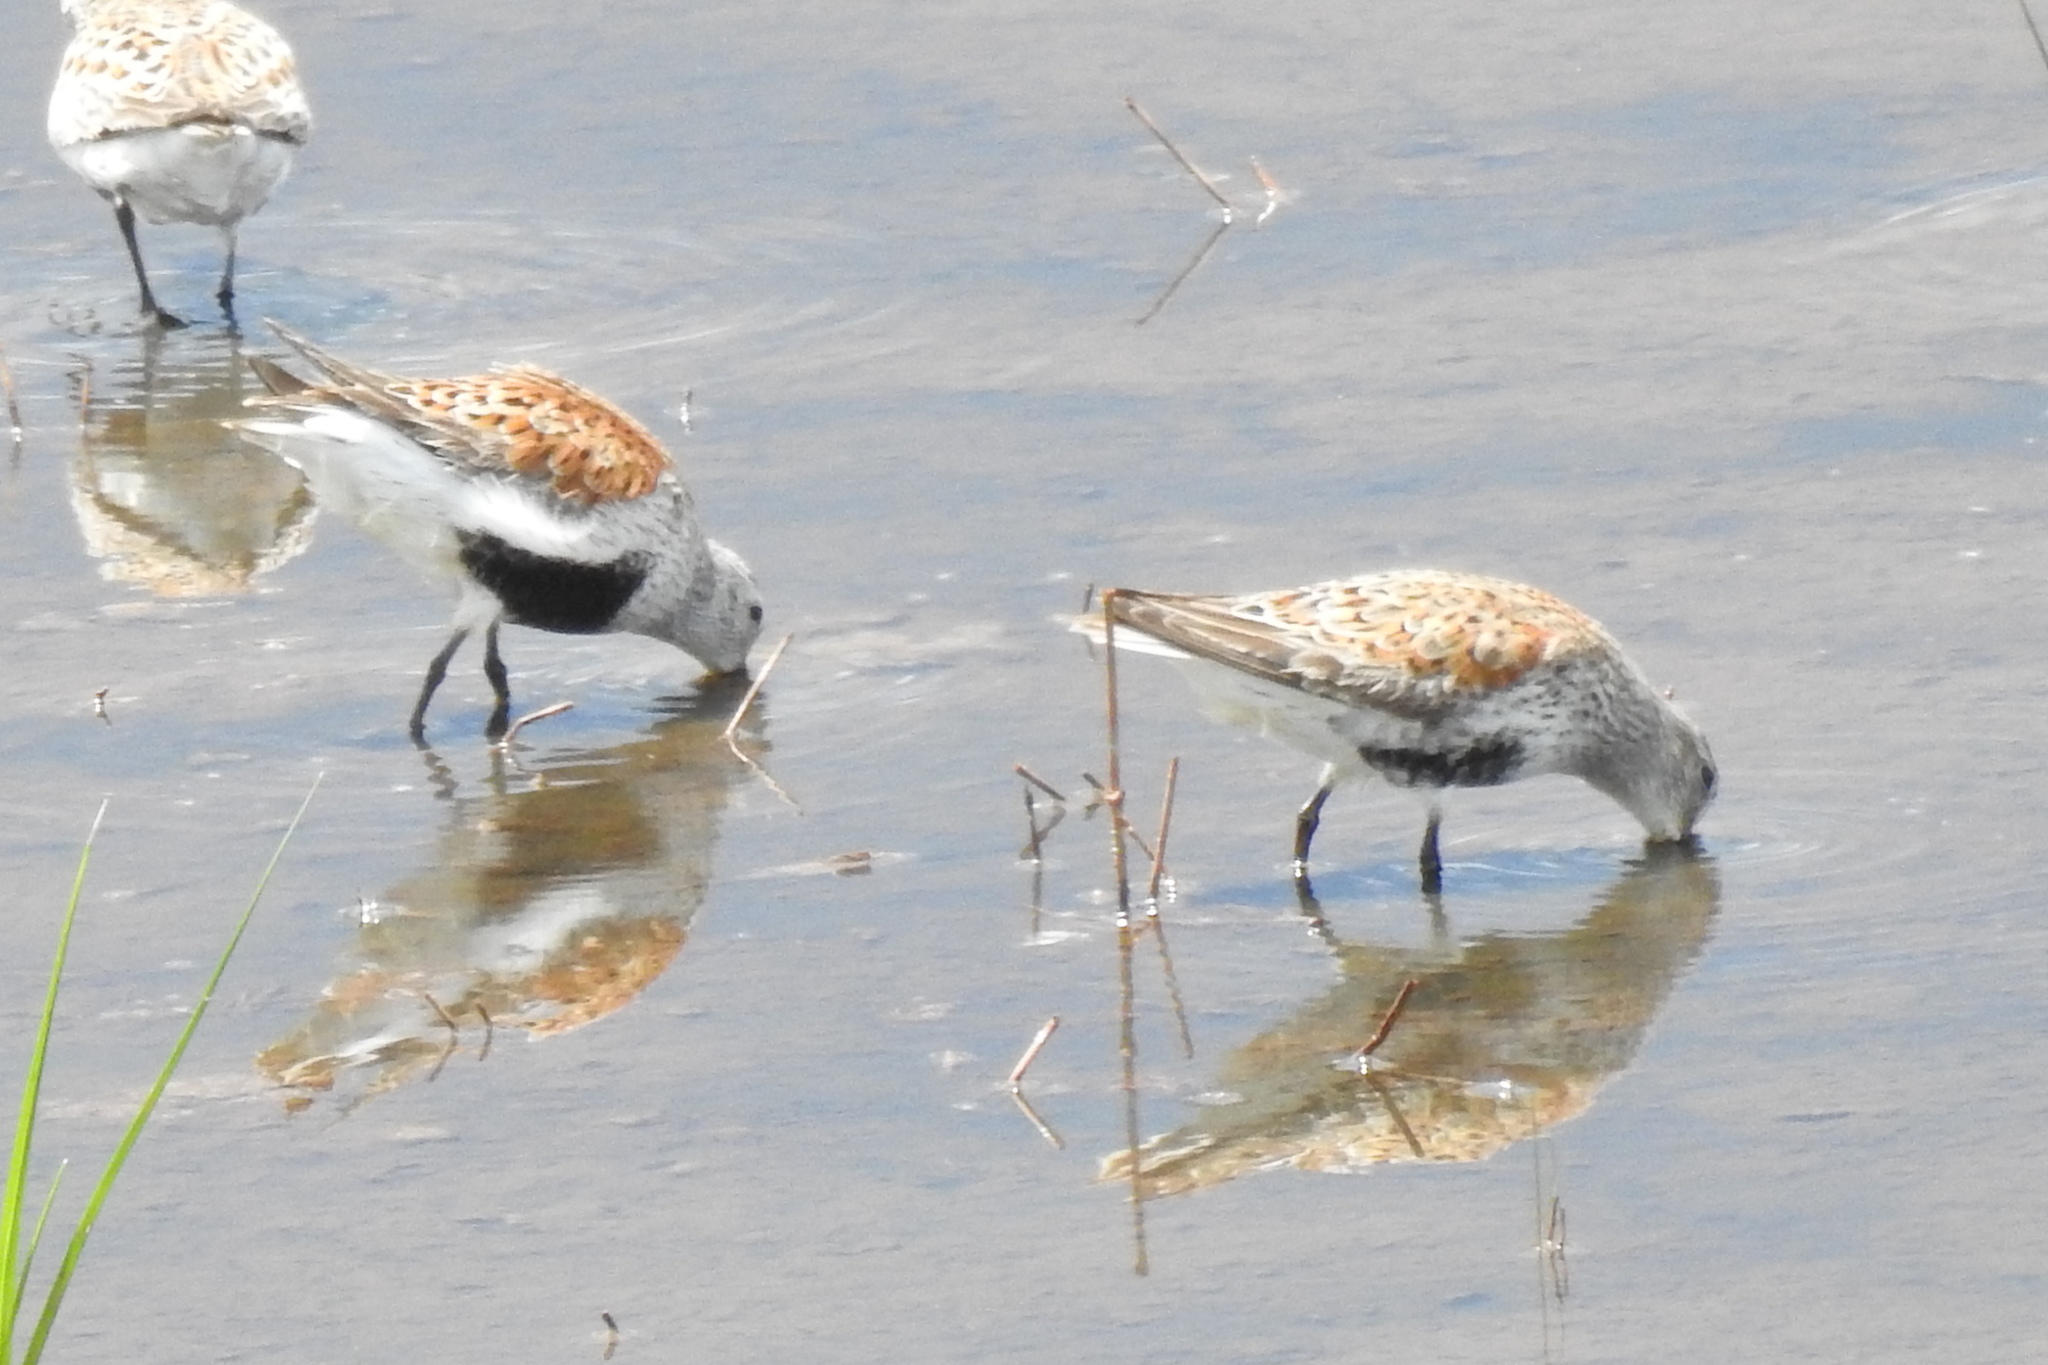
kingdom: Animalia
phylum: Chordata
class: Aves
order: Charadriiformes
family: Scolopacidae
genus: Calidris
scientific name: Calidris alpina
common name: Dunlin
